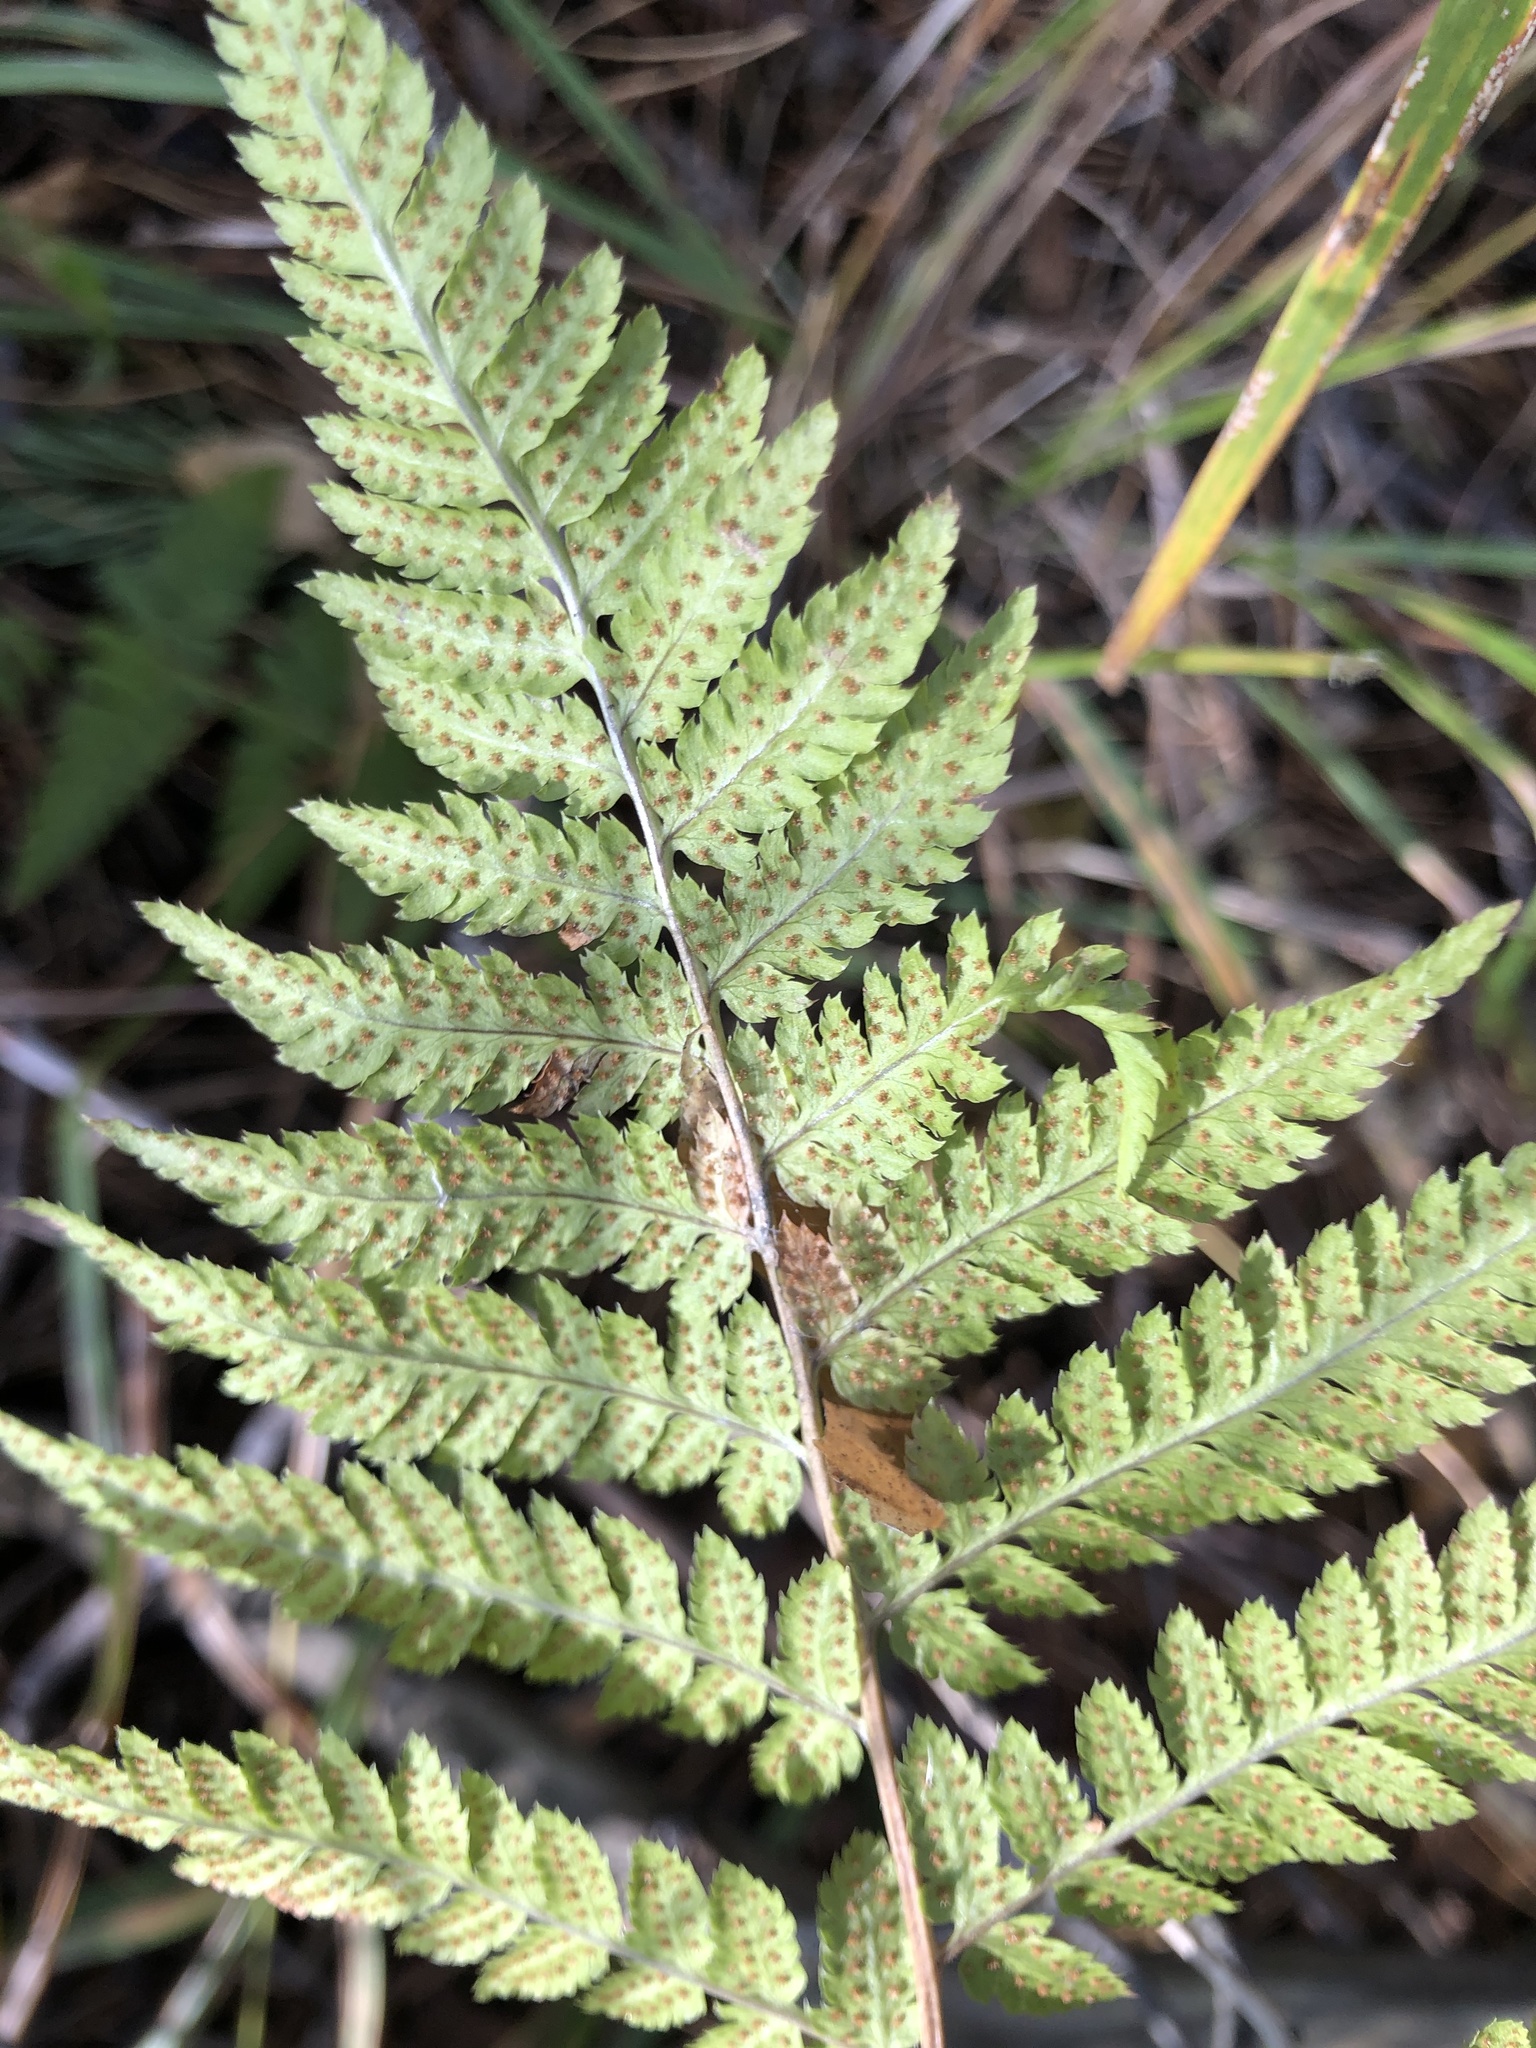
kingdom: Plantae
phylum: Tracheophyta
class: Polypodiopsida
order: Polypodiales
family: Dryopteridaceae
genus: Dryopteris
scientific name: Dryopteris carthusiana
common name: Narrow buckler-fern
